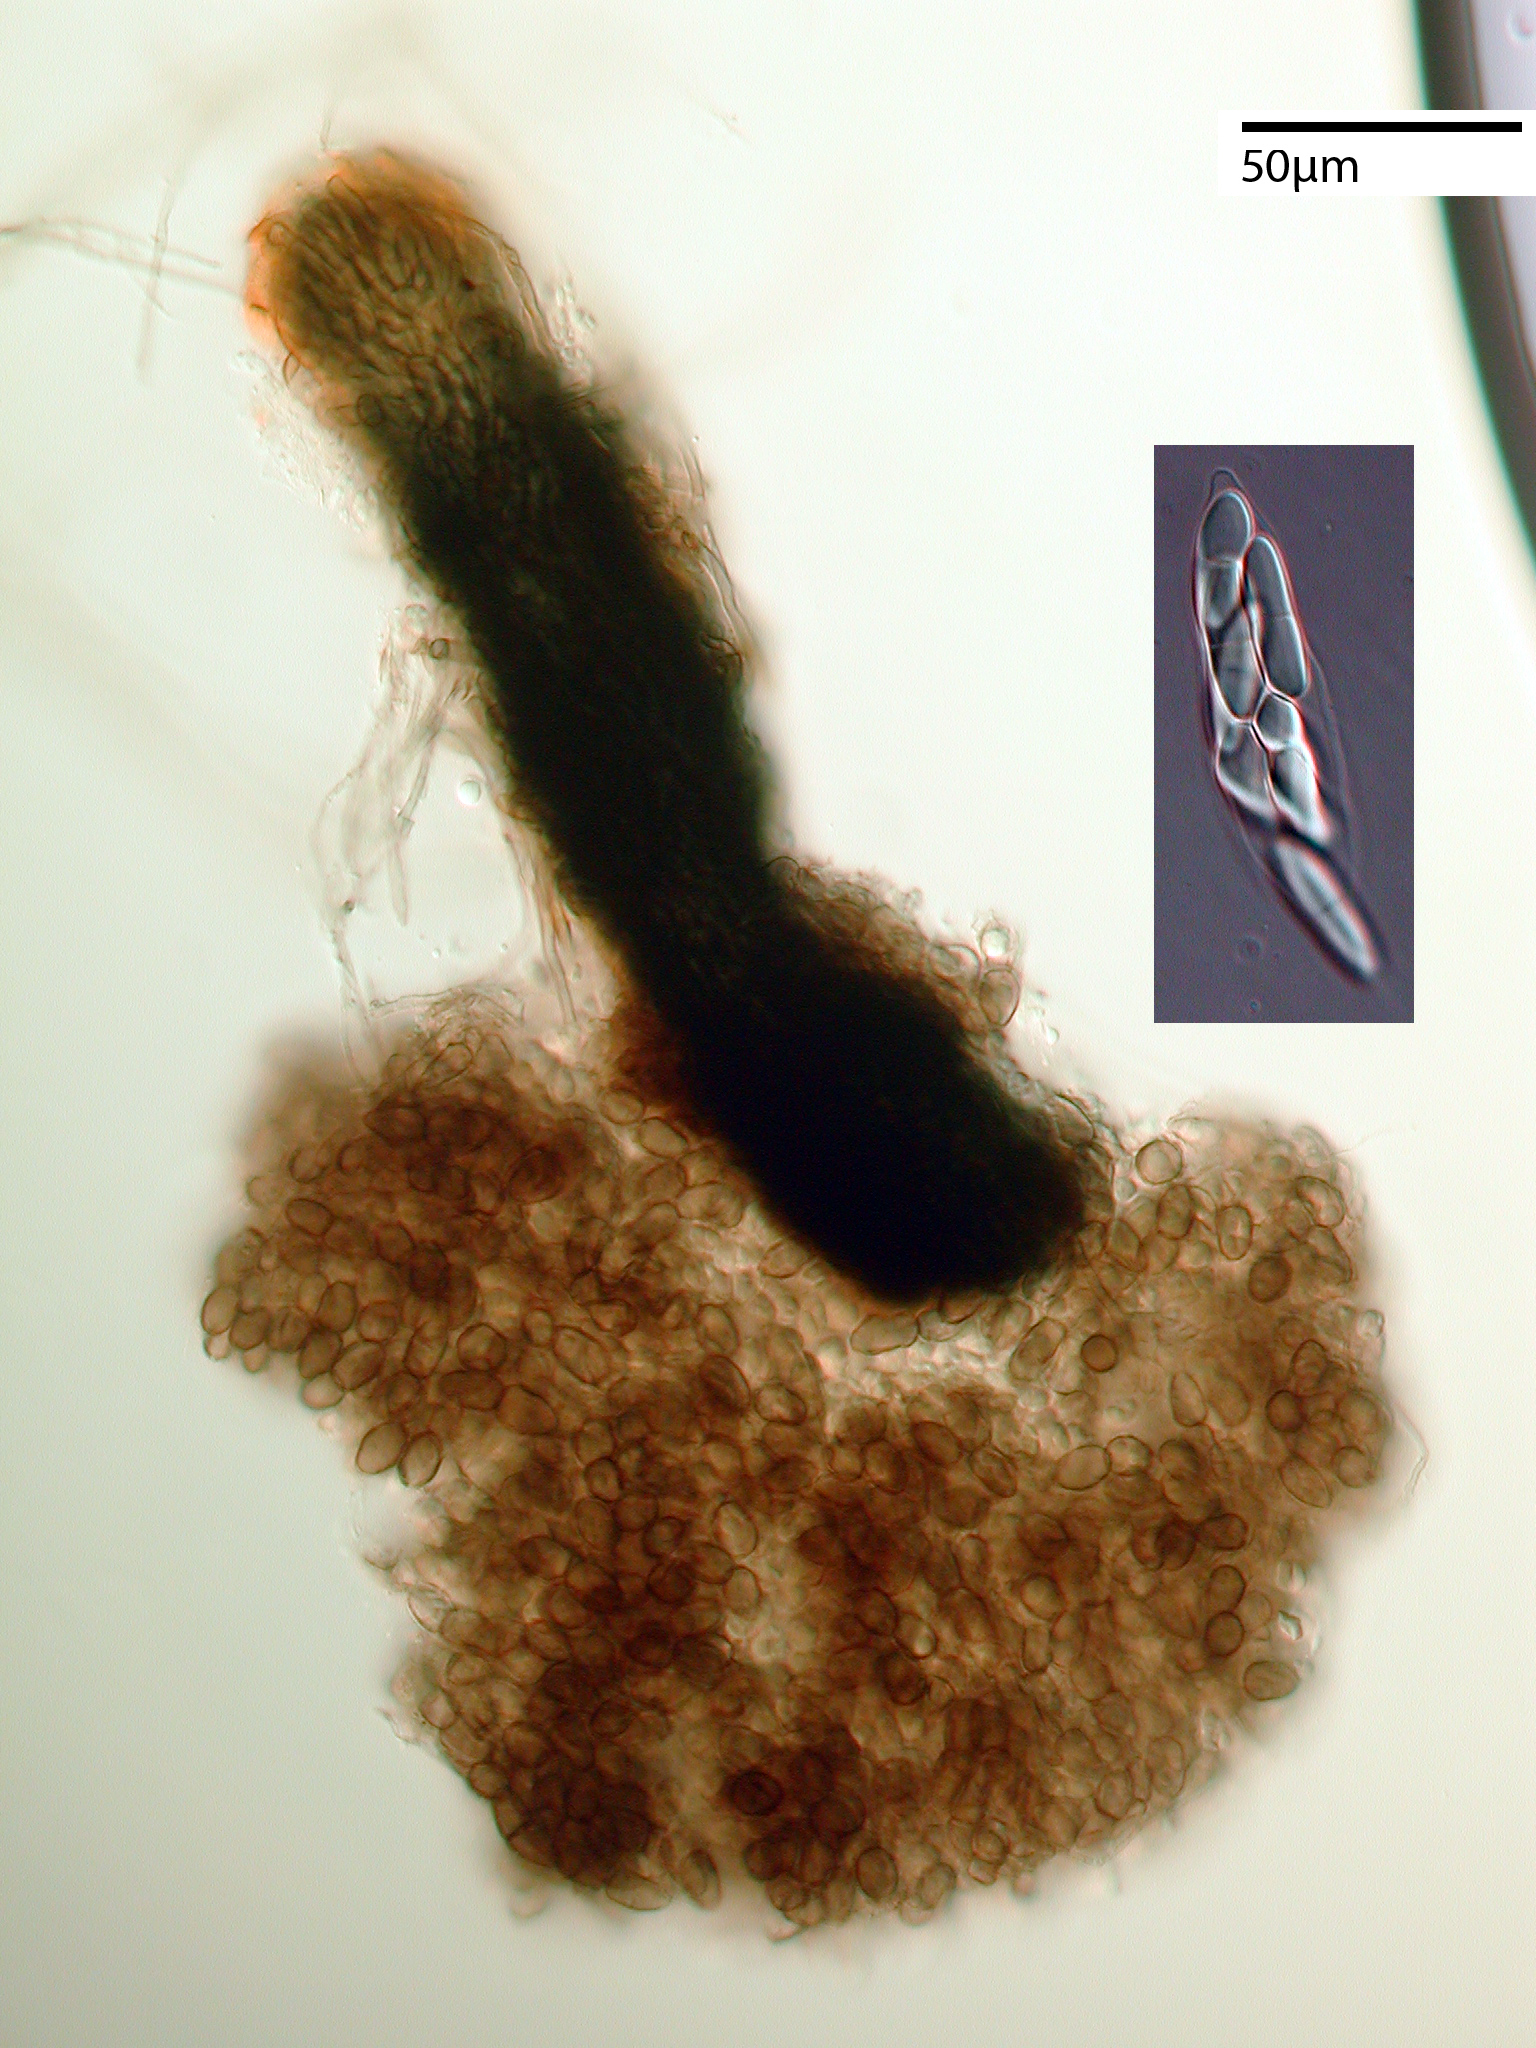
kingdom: Fungi
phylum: Ascomycota
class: Sordariomycetes
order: Microascales
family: Halosphaeriaceae
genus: Lignincola
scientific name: Lignincola laevis
